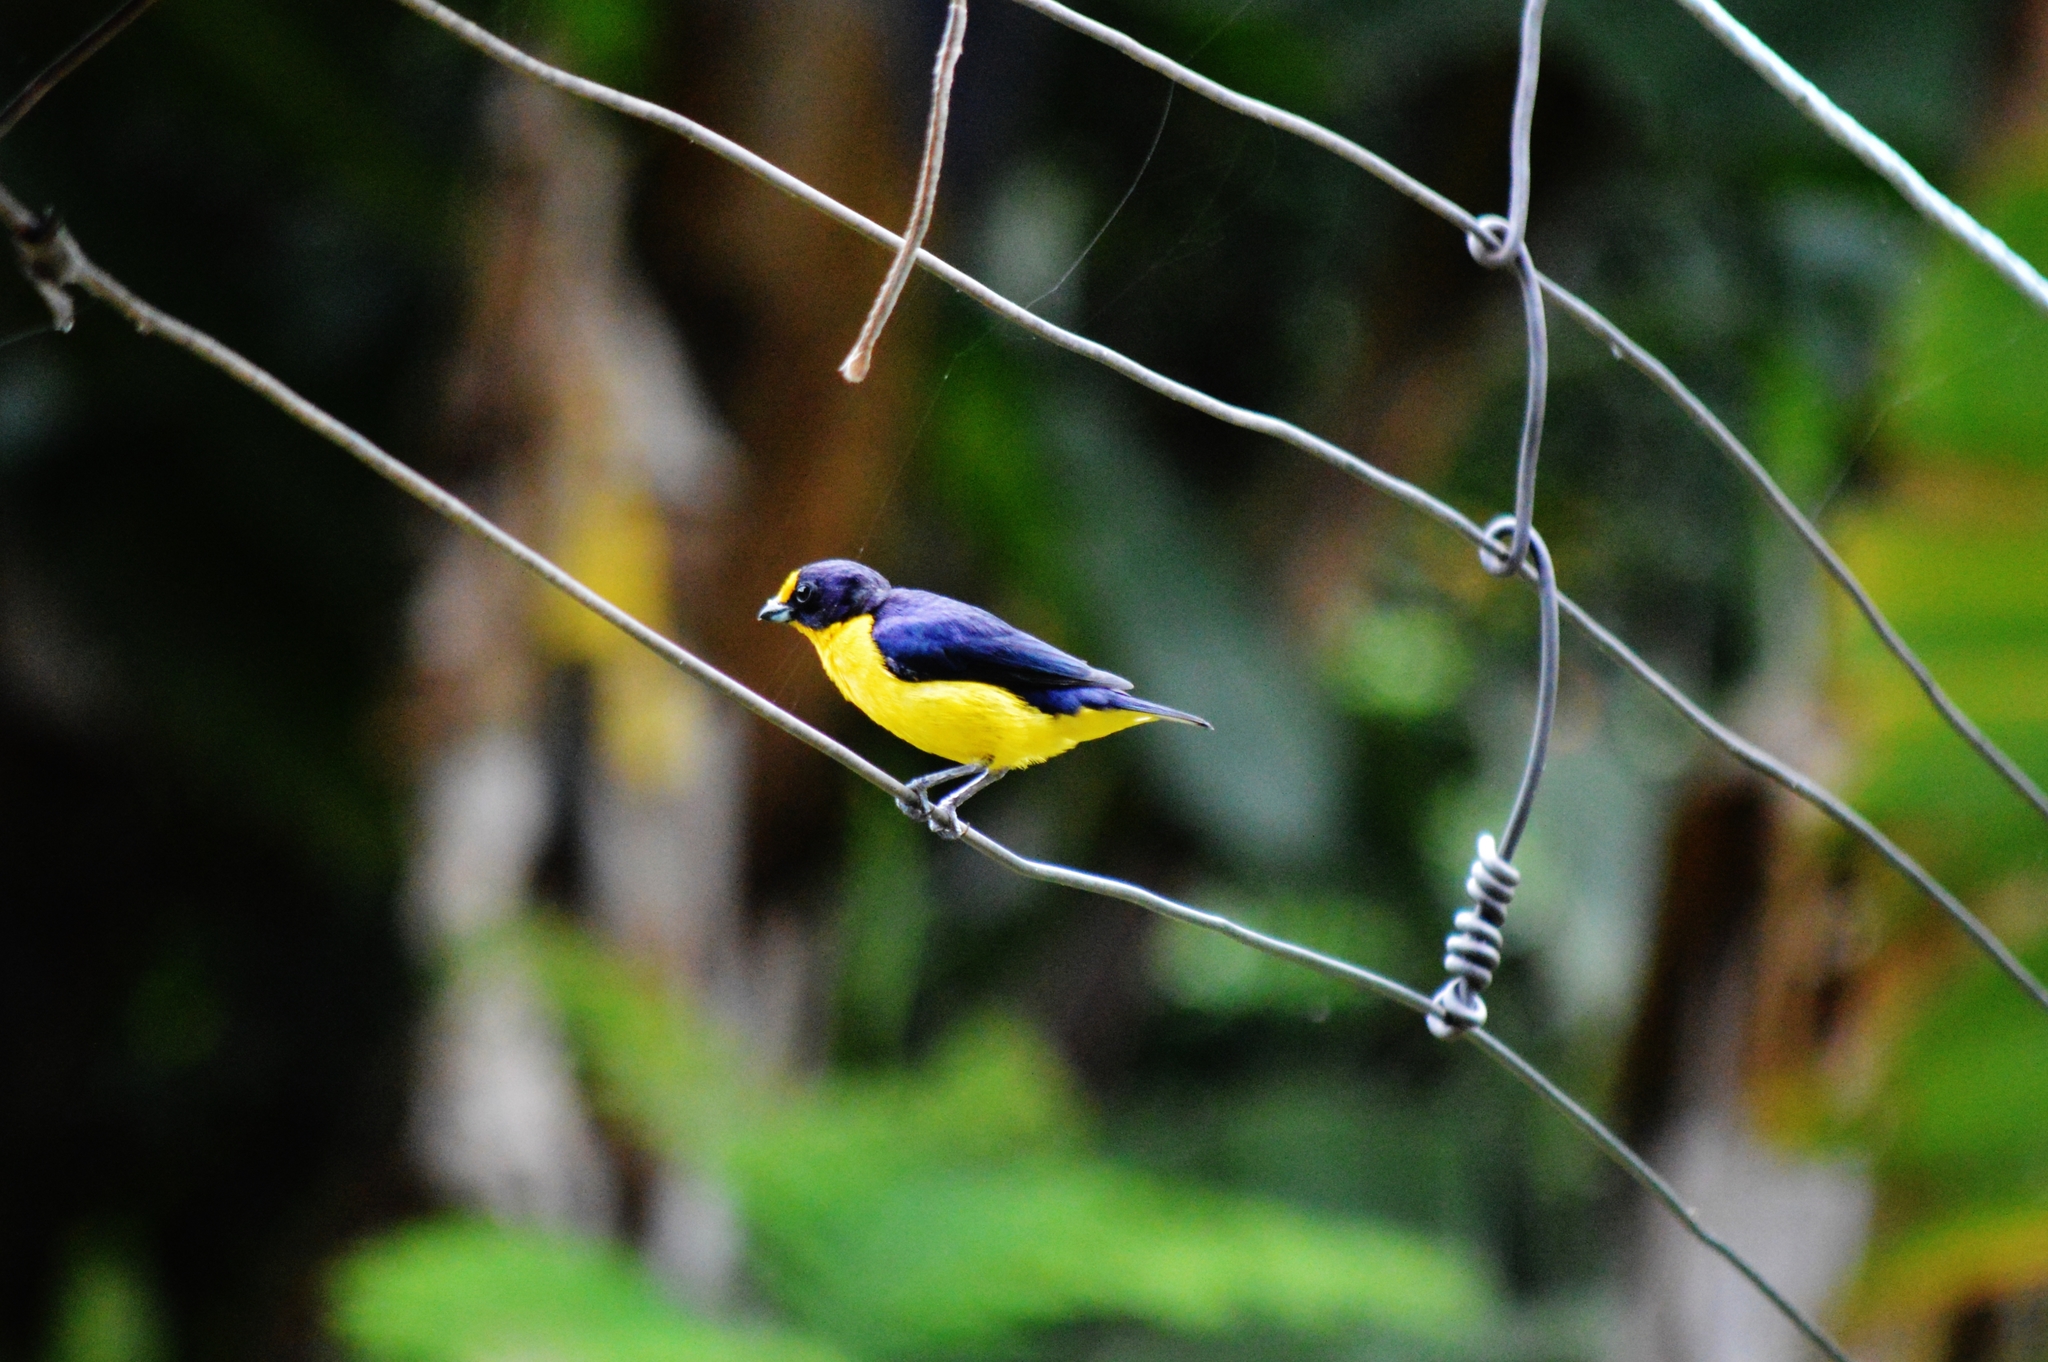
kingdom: Animalia
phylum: Chordata
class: Aves
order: Passeriformes
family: Fringillidae
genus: Euphonia
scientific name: Euphonia violacea
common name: Violaceous euphonia
